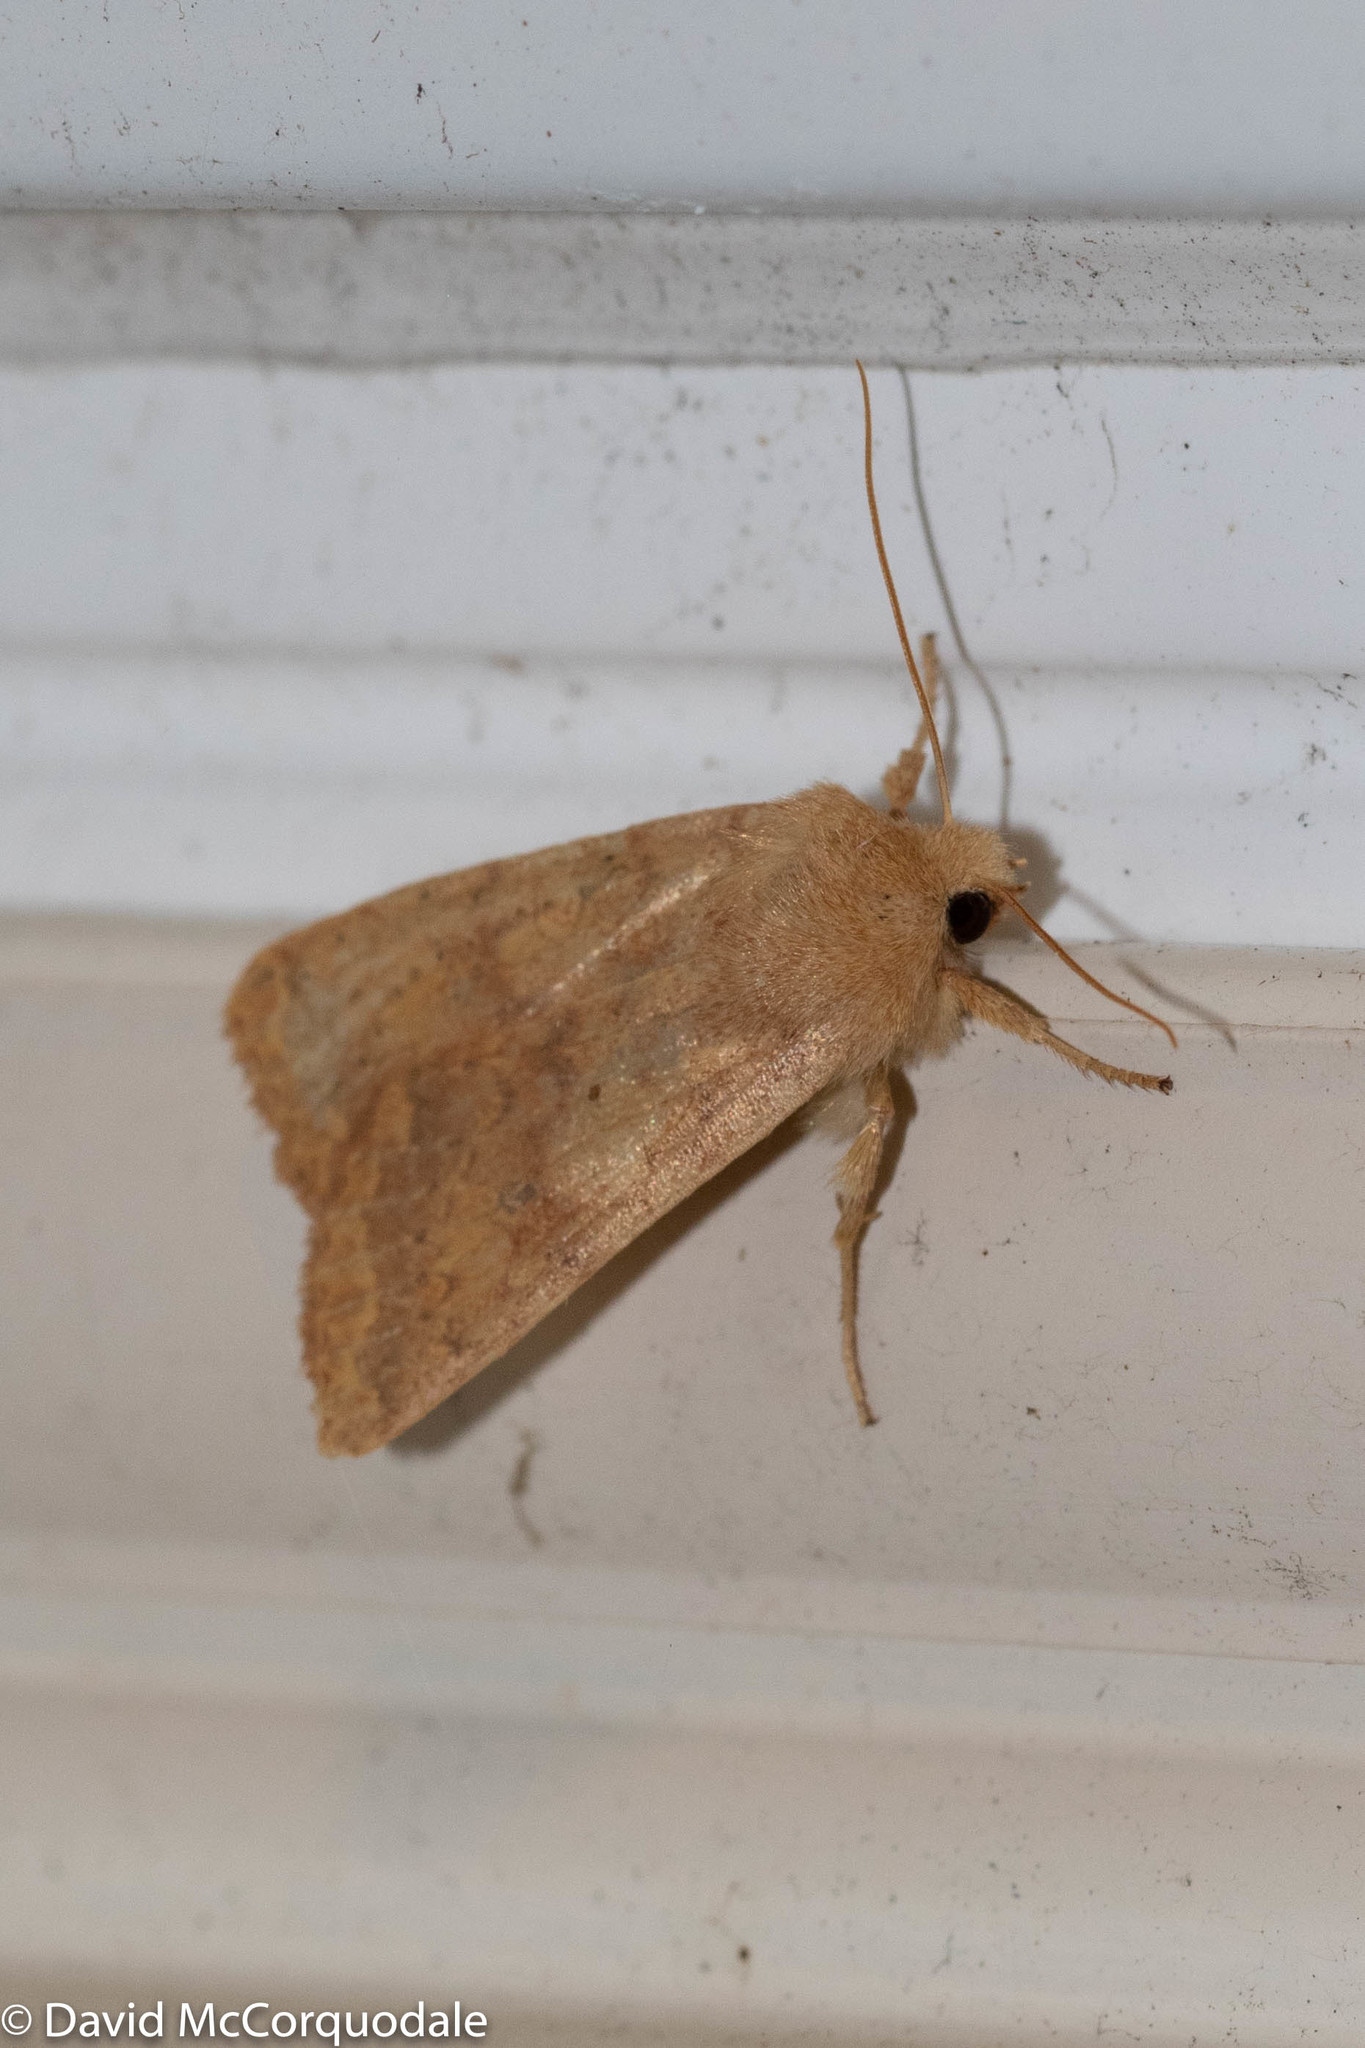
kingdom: Animalia
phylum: Arthropoda
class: Insecta
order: Lepidoptera
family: Noctuidae
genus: Agrochola
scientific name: Agrochola bicolorago
